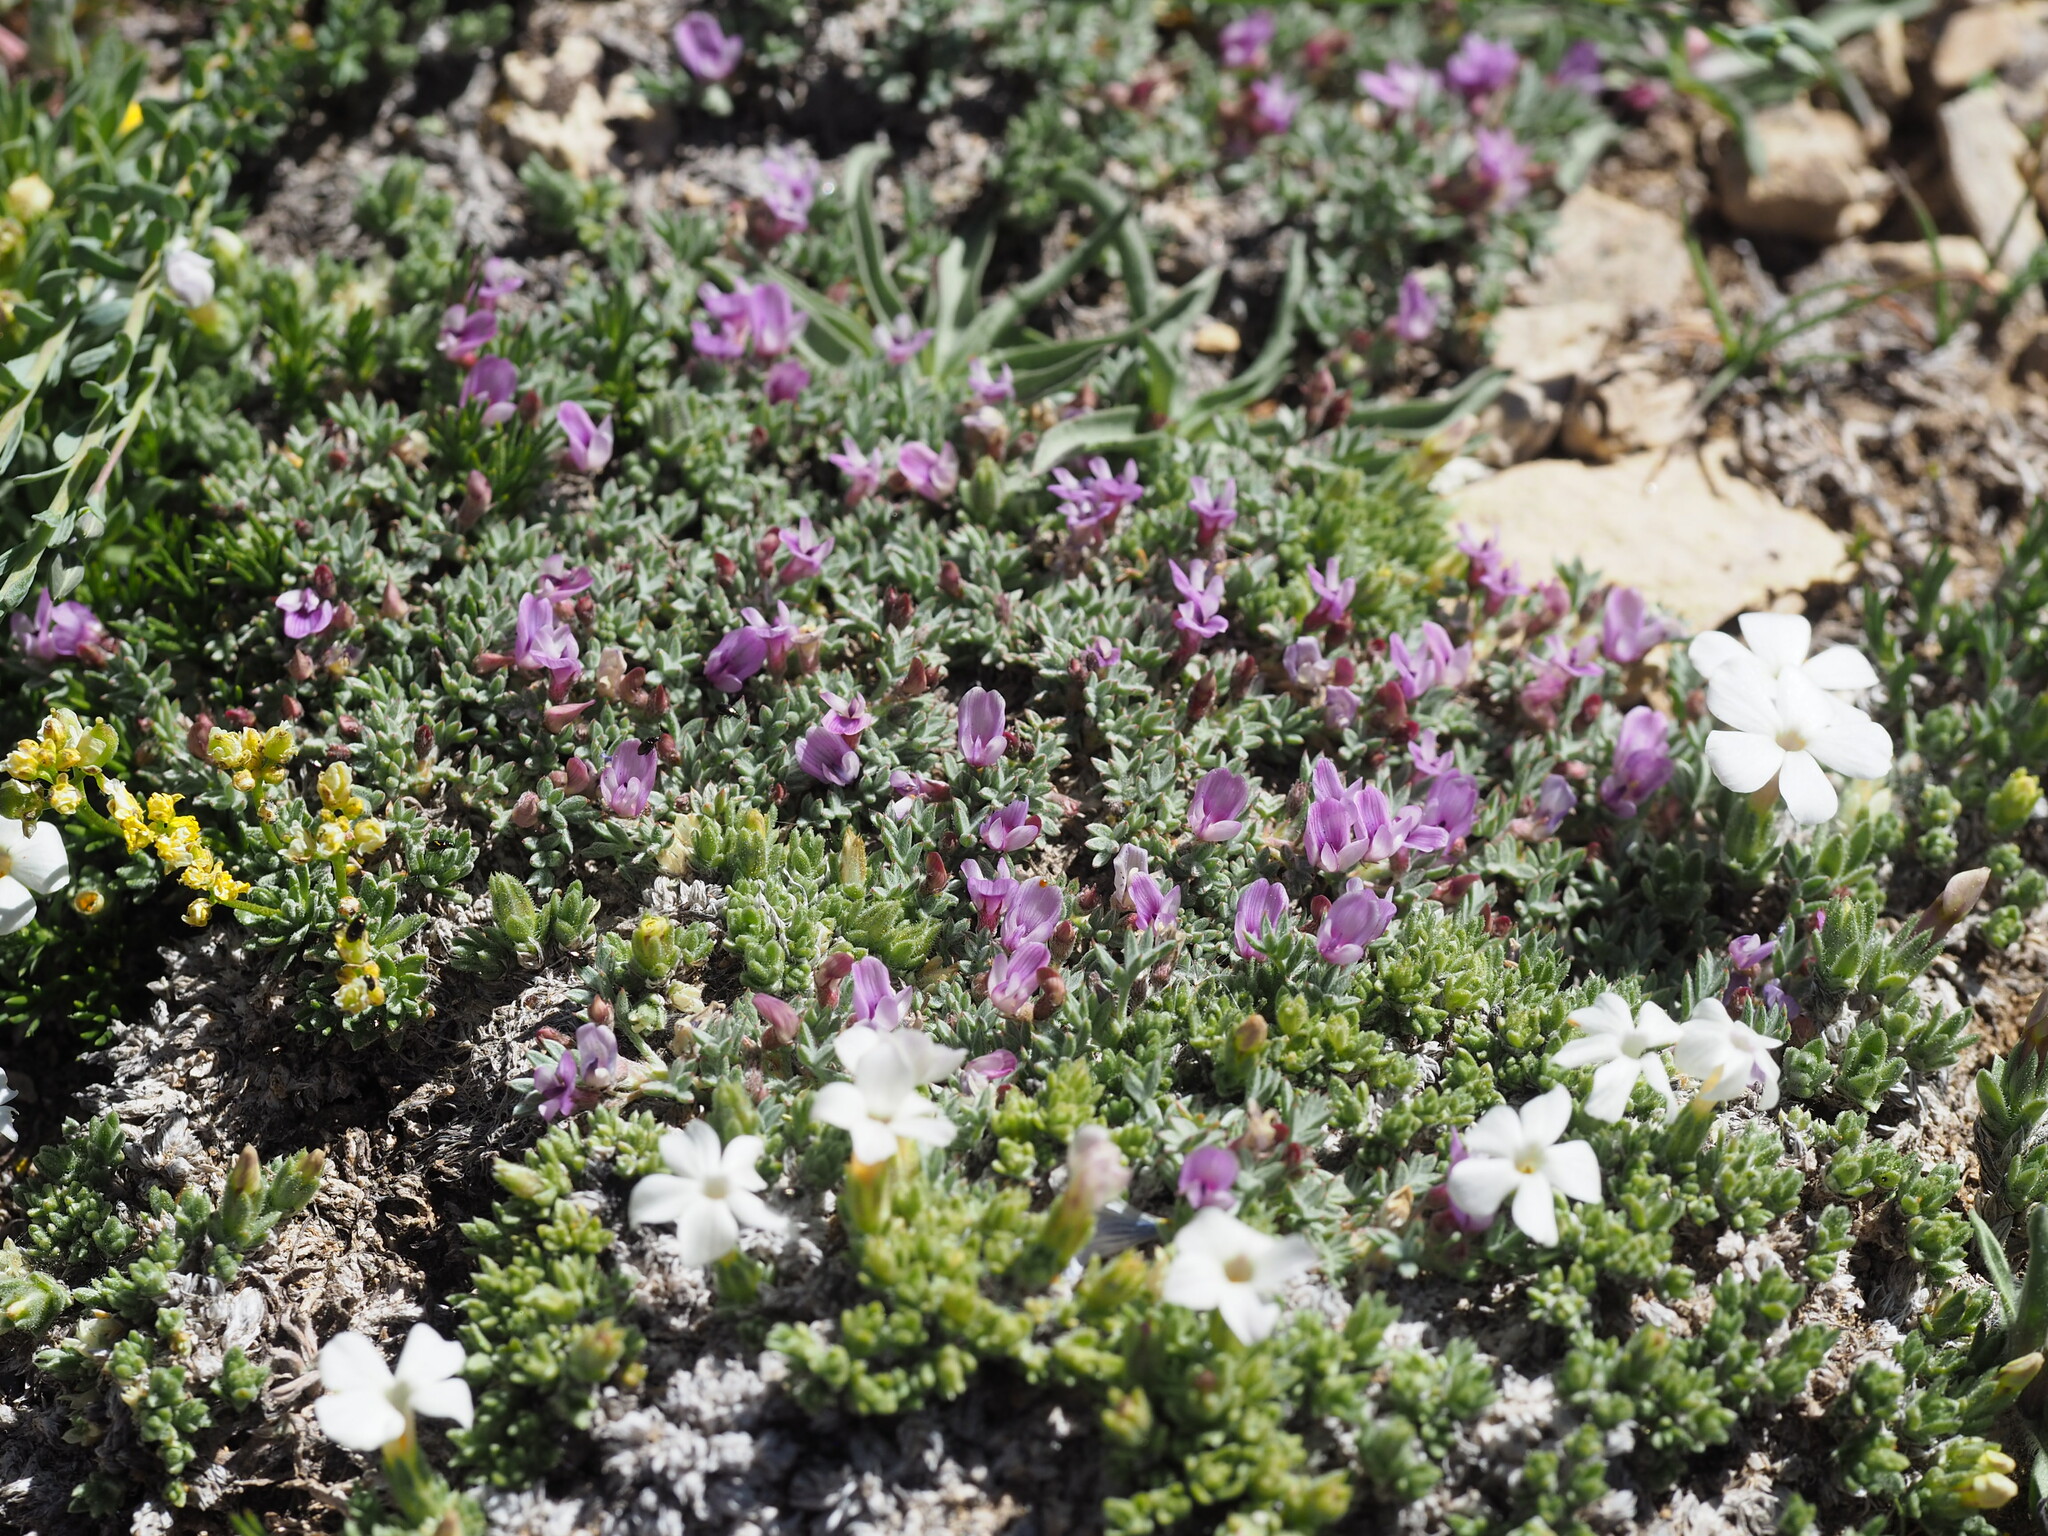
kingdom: Plantae
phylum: Tracheophyta
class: Magnoliopsida
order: Fabales
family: Fabaceae
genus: Astragalus
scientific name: Astragalus kentrophyta
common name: Prickly milk-vetch
